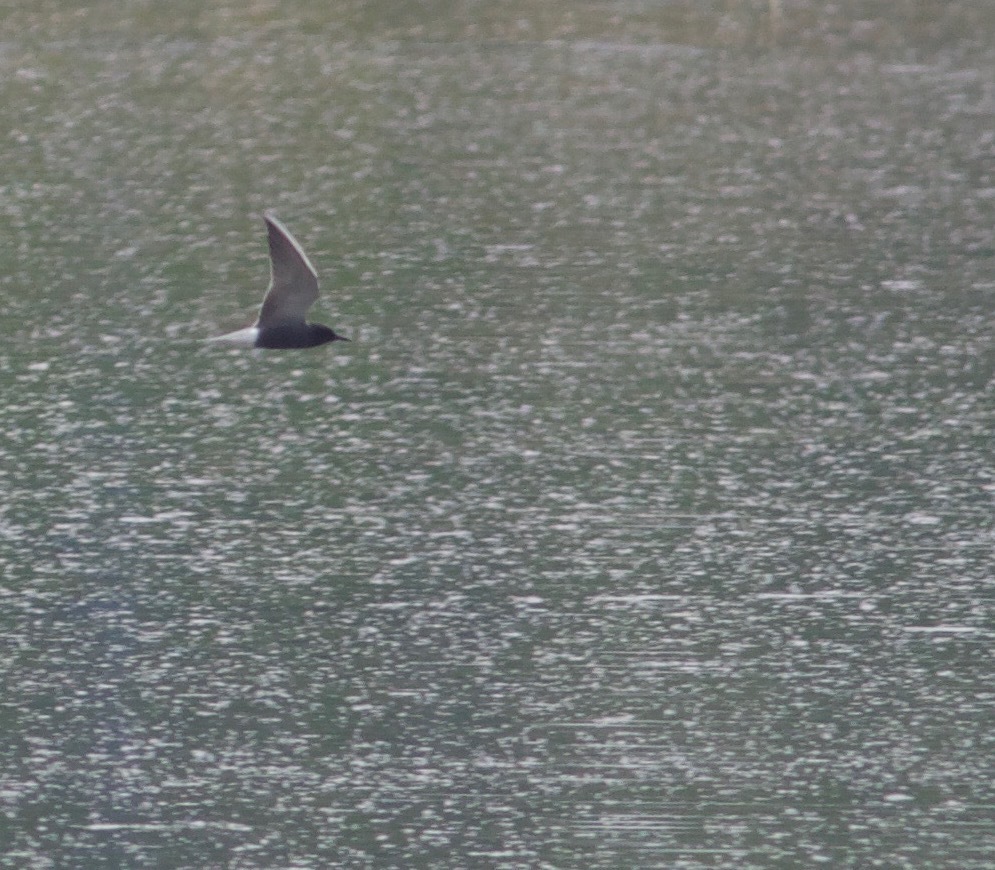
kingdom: Animalia
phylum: Chordata
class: Aves
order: Charadriiformes
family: Laridae
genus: Chlidonias
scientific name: Chlidonias niger
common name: Black tern
